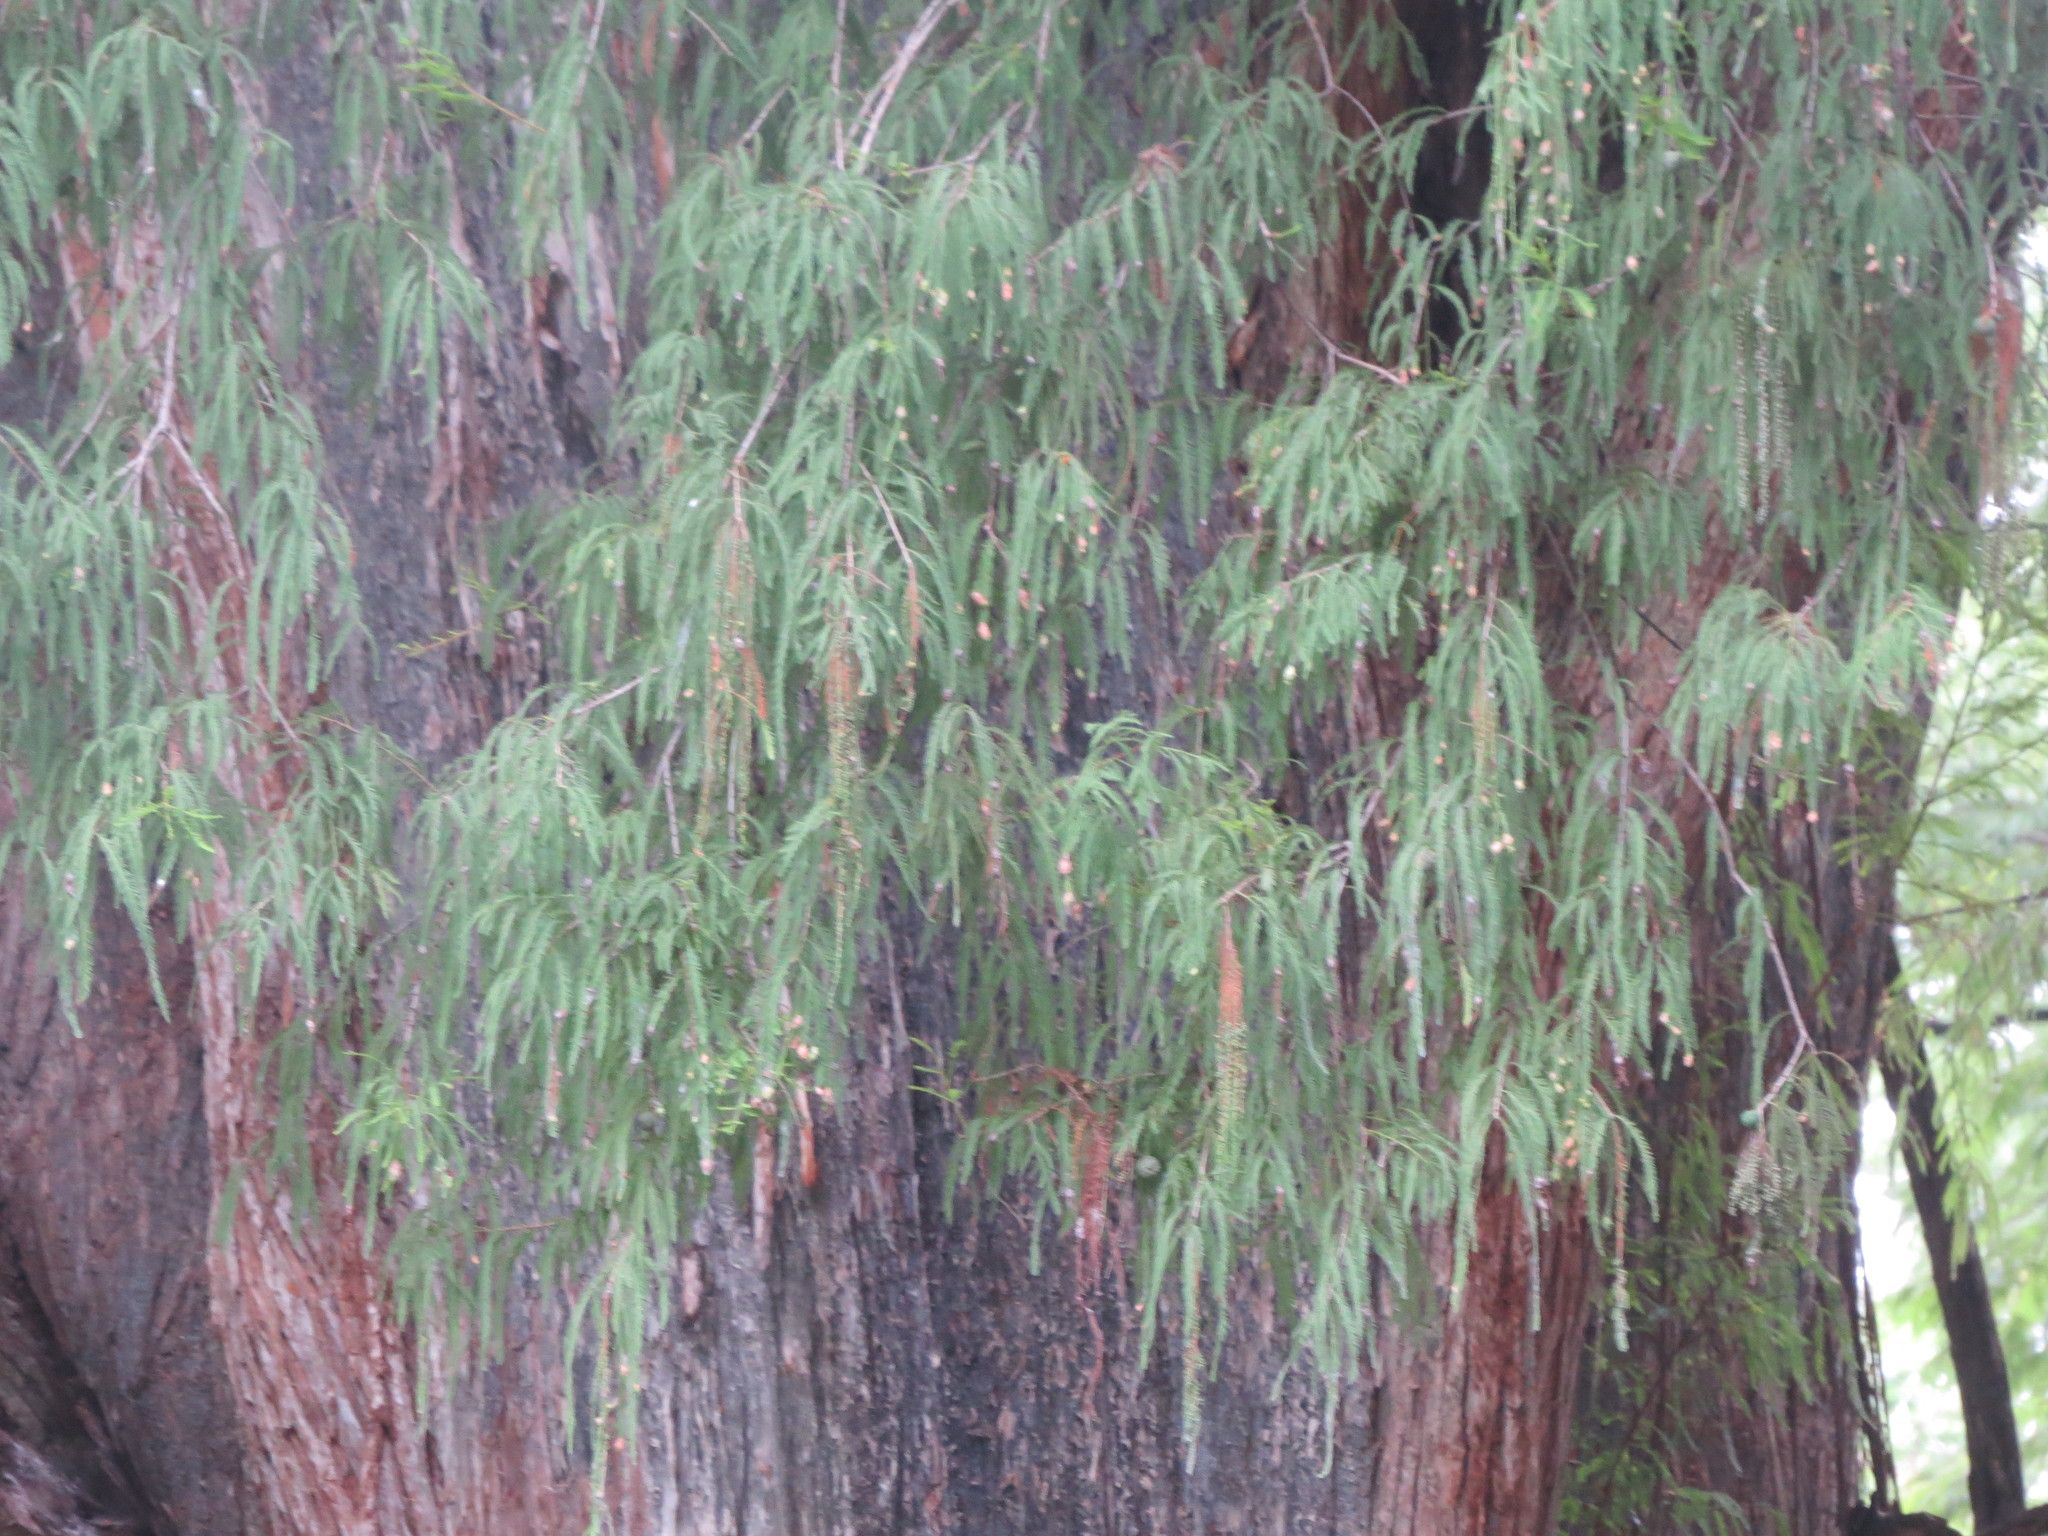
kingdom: Plantae
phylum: Tracheophyta
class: Pinopsida
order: Pinales
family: Cupressaceae
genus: Taxodium
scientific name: Taxodium mucronatum
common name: Montezume bald cypress
